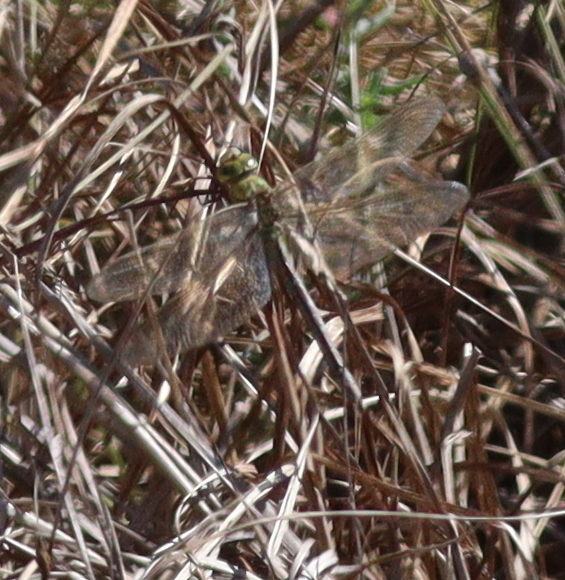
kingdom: Animalia
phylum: Arthropoda
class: Insecta
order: Odonata
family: Aeshnidae
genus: Anax
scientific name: Anax imperator
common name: Emperor dragonfly
